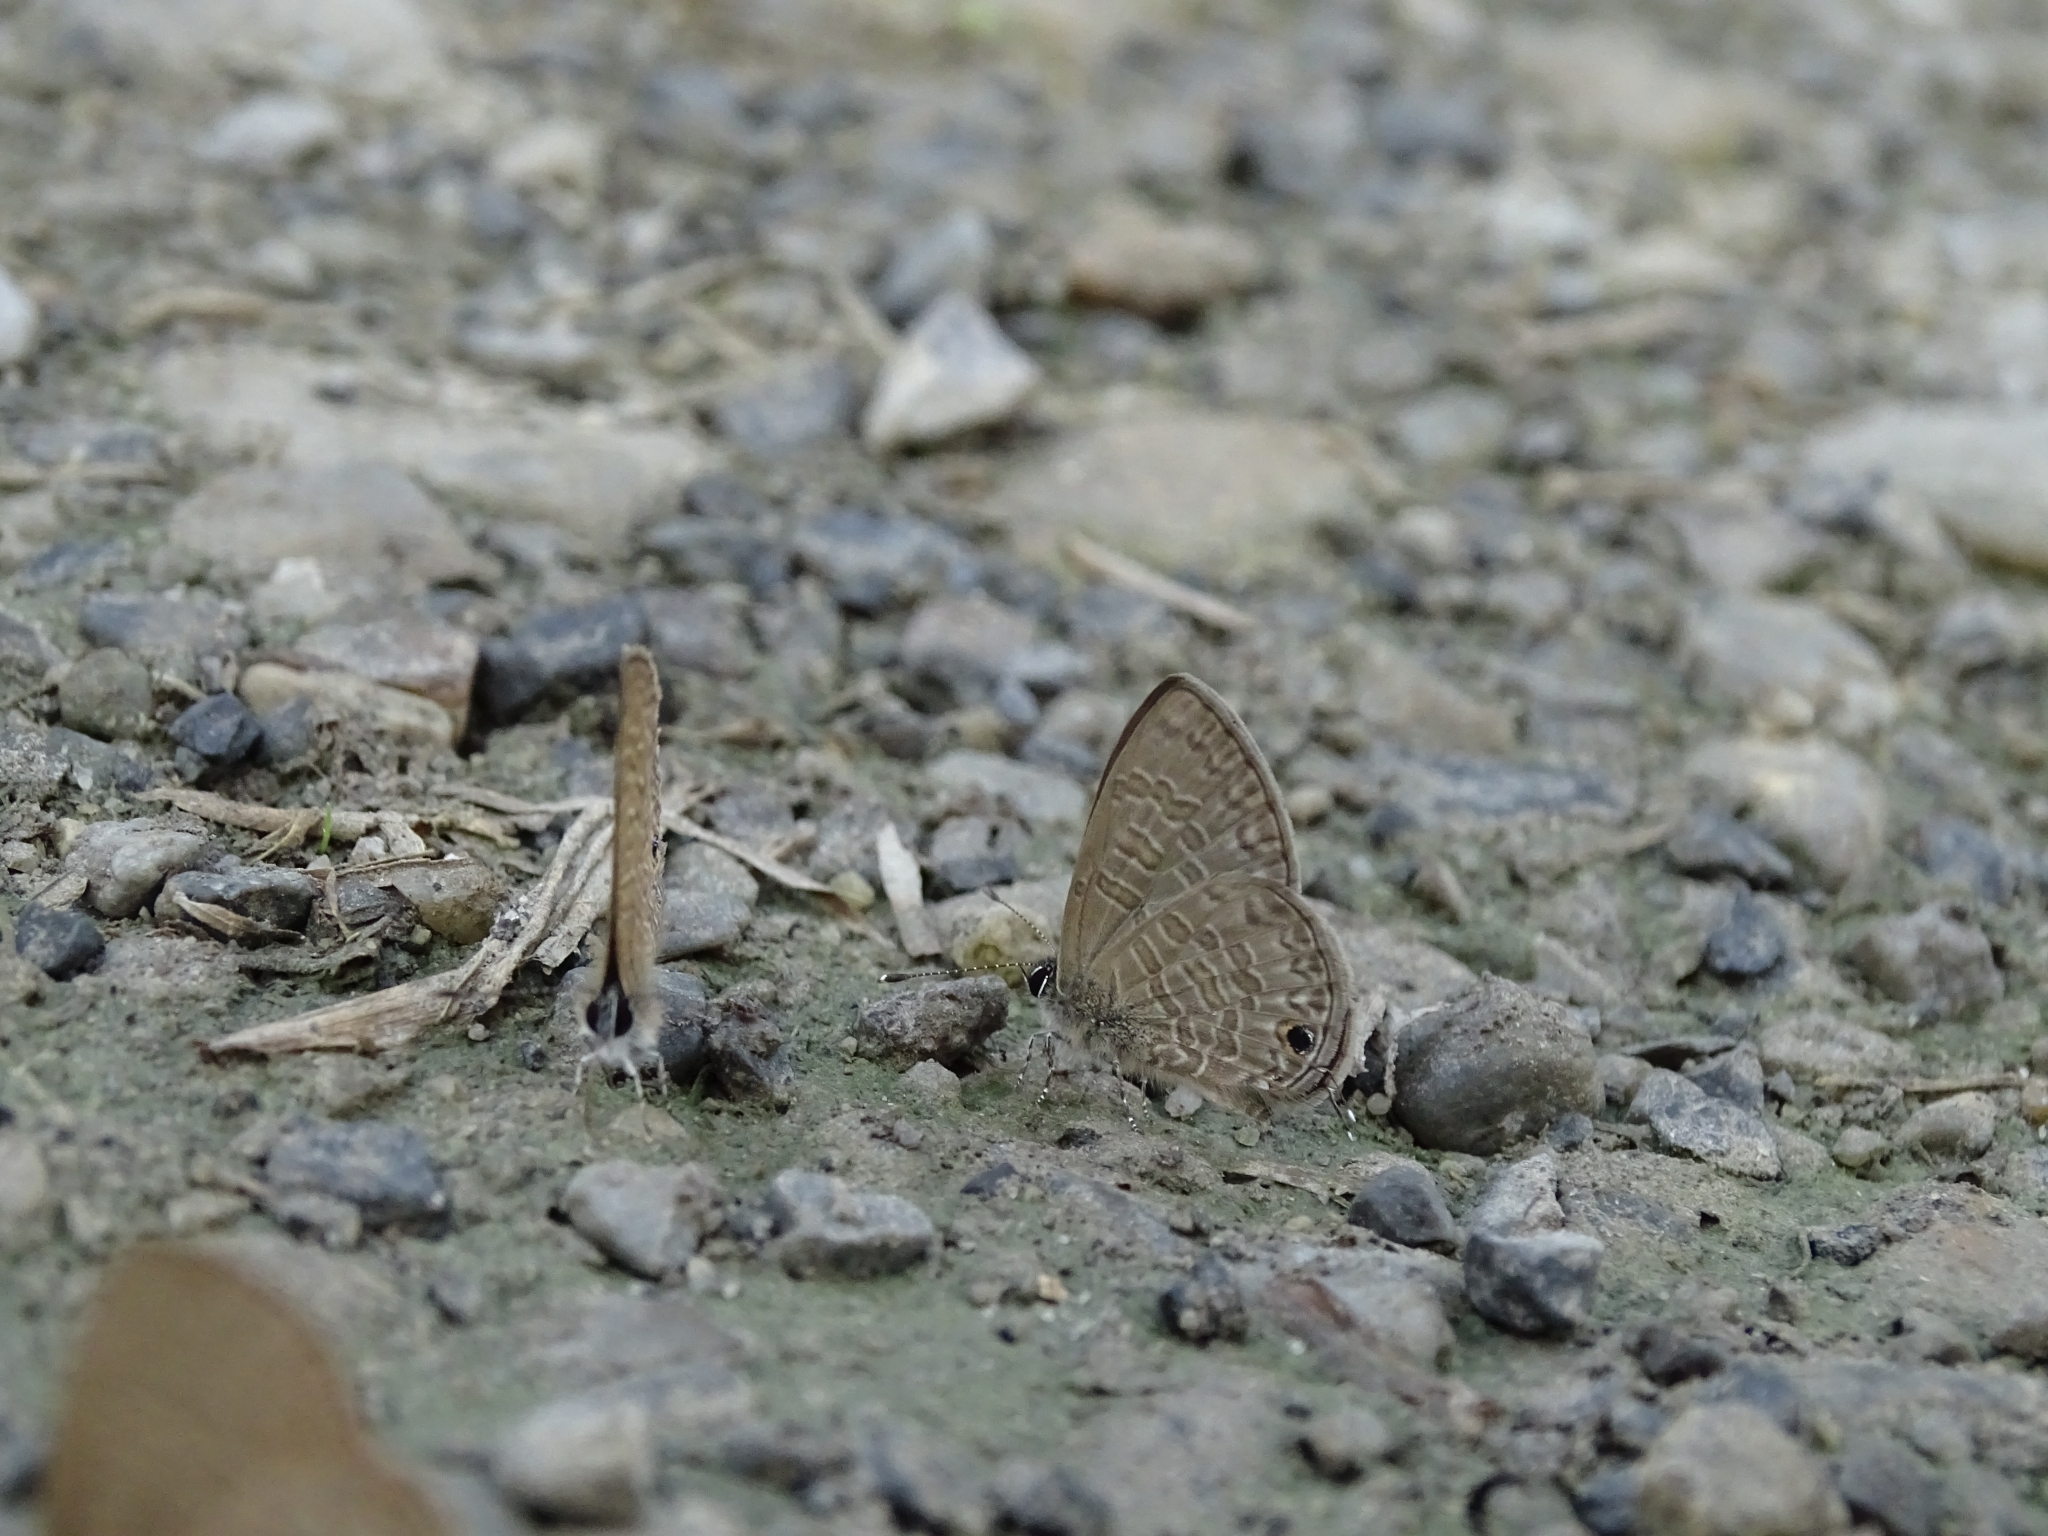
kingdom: Animalia
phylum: Arthropoda
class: Insecta
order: Lepidoptera
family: Lycaenidae
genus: Prosotas
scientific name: Prosotas nora
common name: Common line blue
